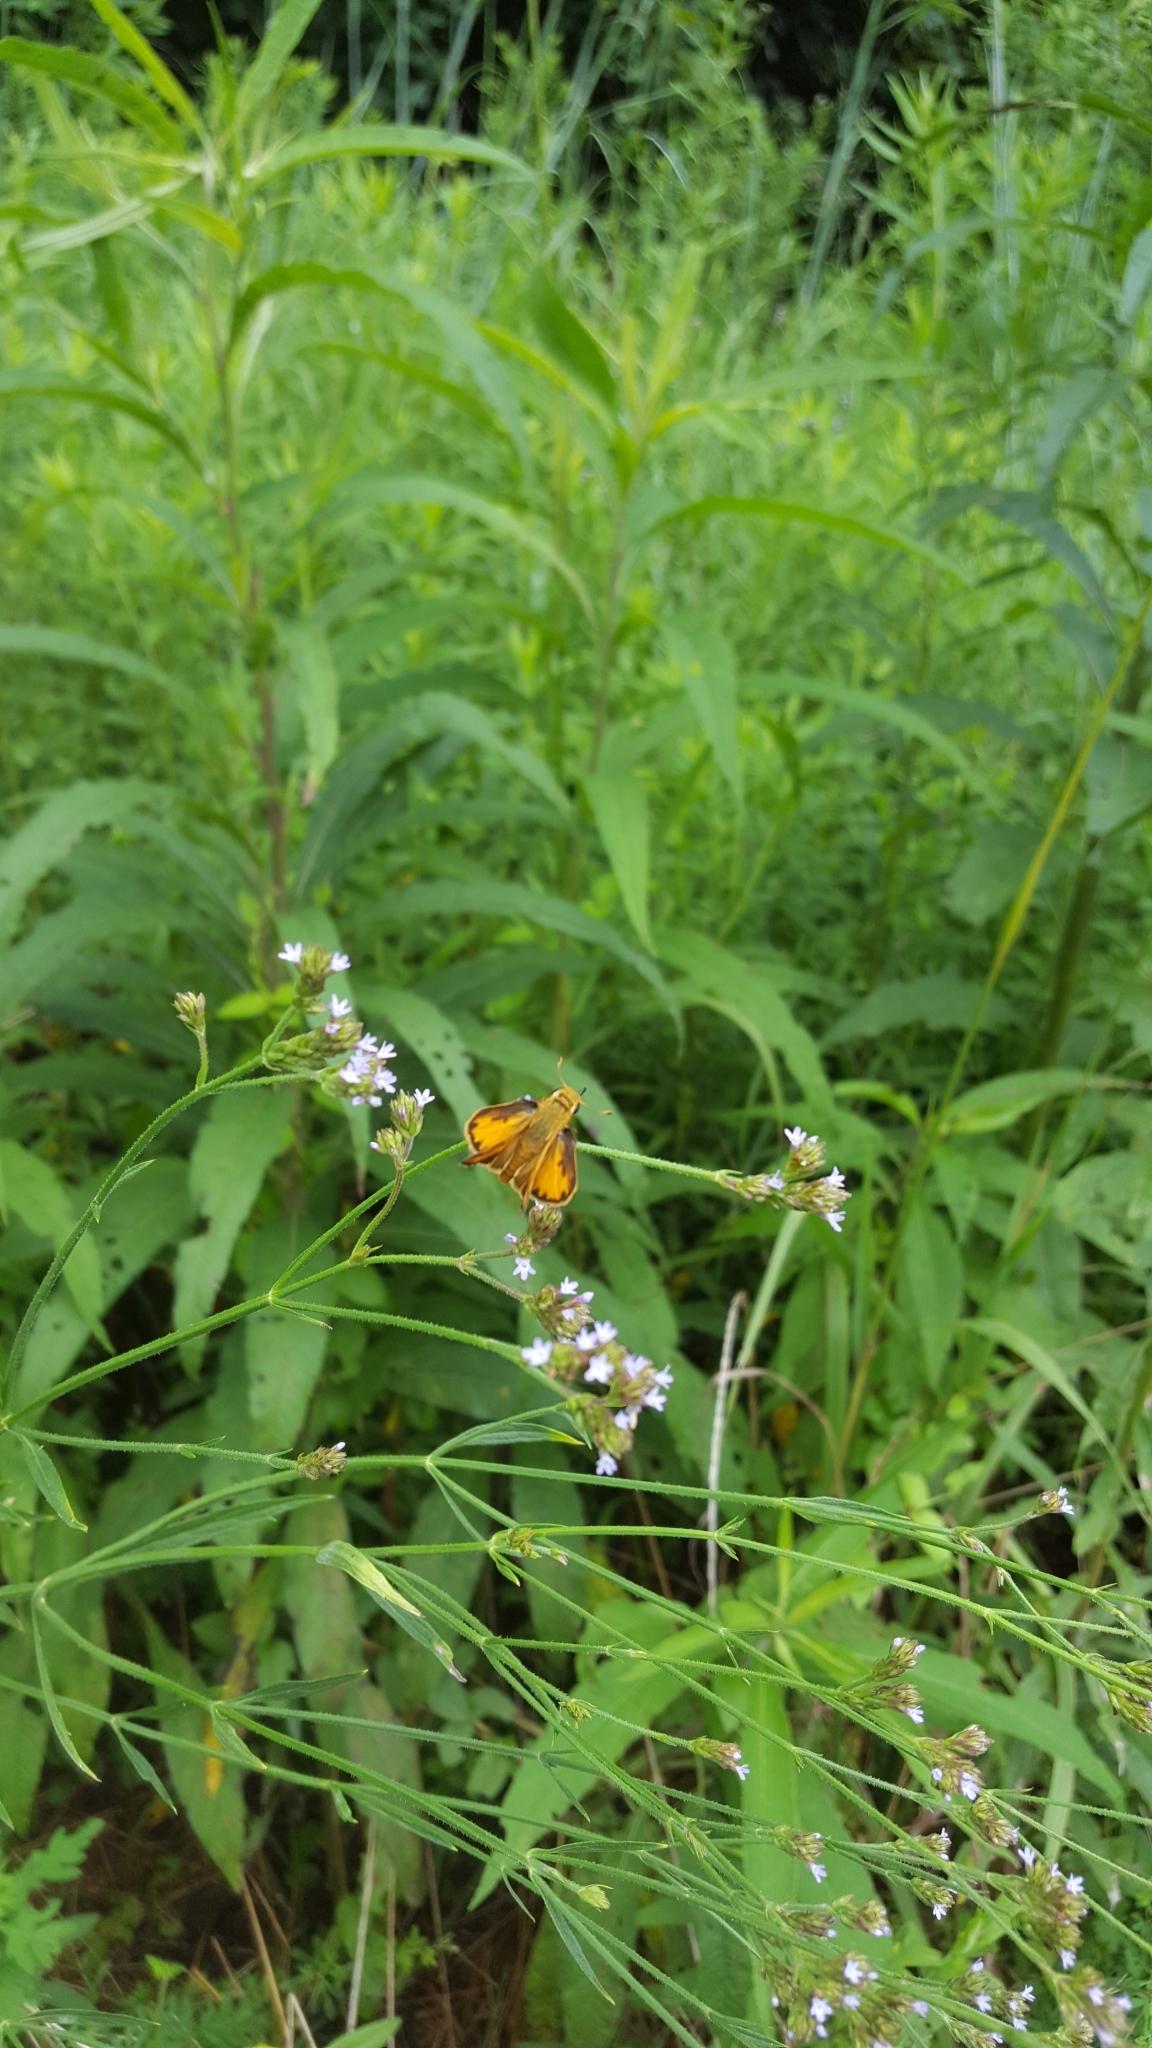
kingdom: Animalia
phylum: Arthropoda
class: Insecta
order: Lepidoptera
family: Hesperiidae
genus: Hylephila
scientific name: Hylephila phyleus
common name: Fiery skipper
